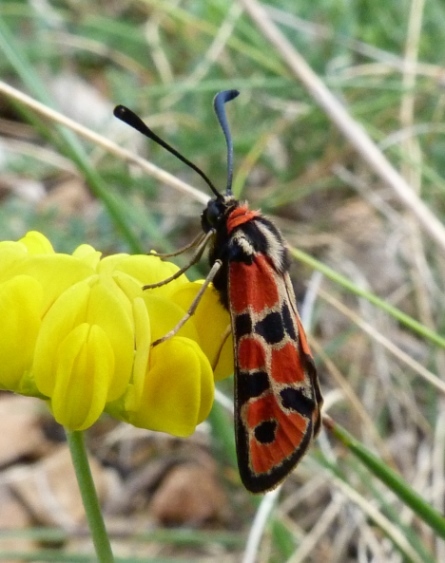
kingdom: Animalia
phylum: Arthropoda
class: Insecta
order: Lepidoptera
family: Zygaenidae
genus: Zygaena
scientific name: Zygaena fausta
